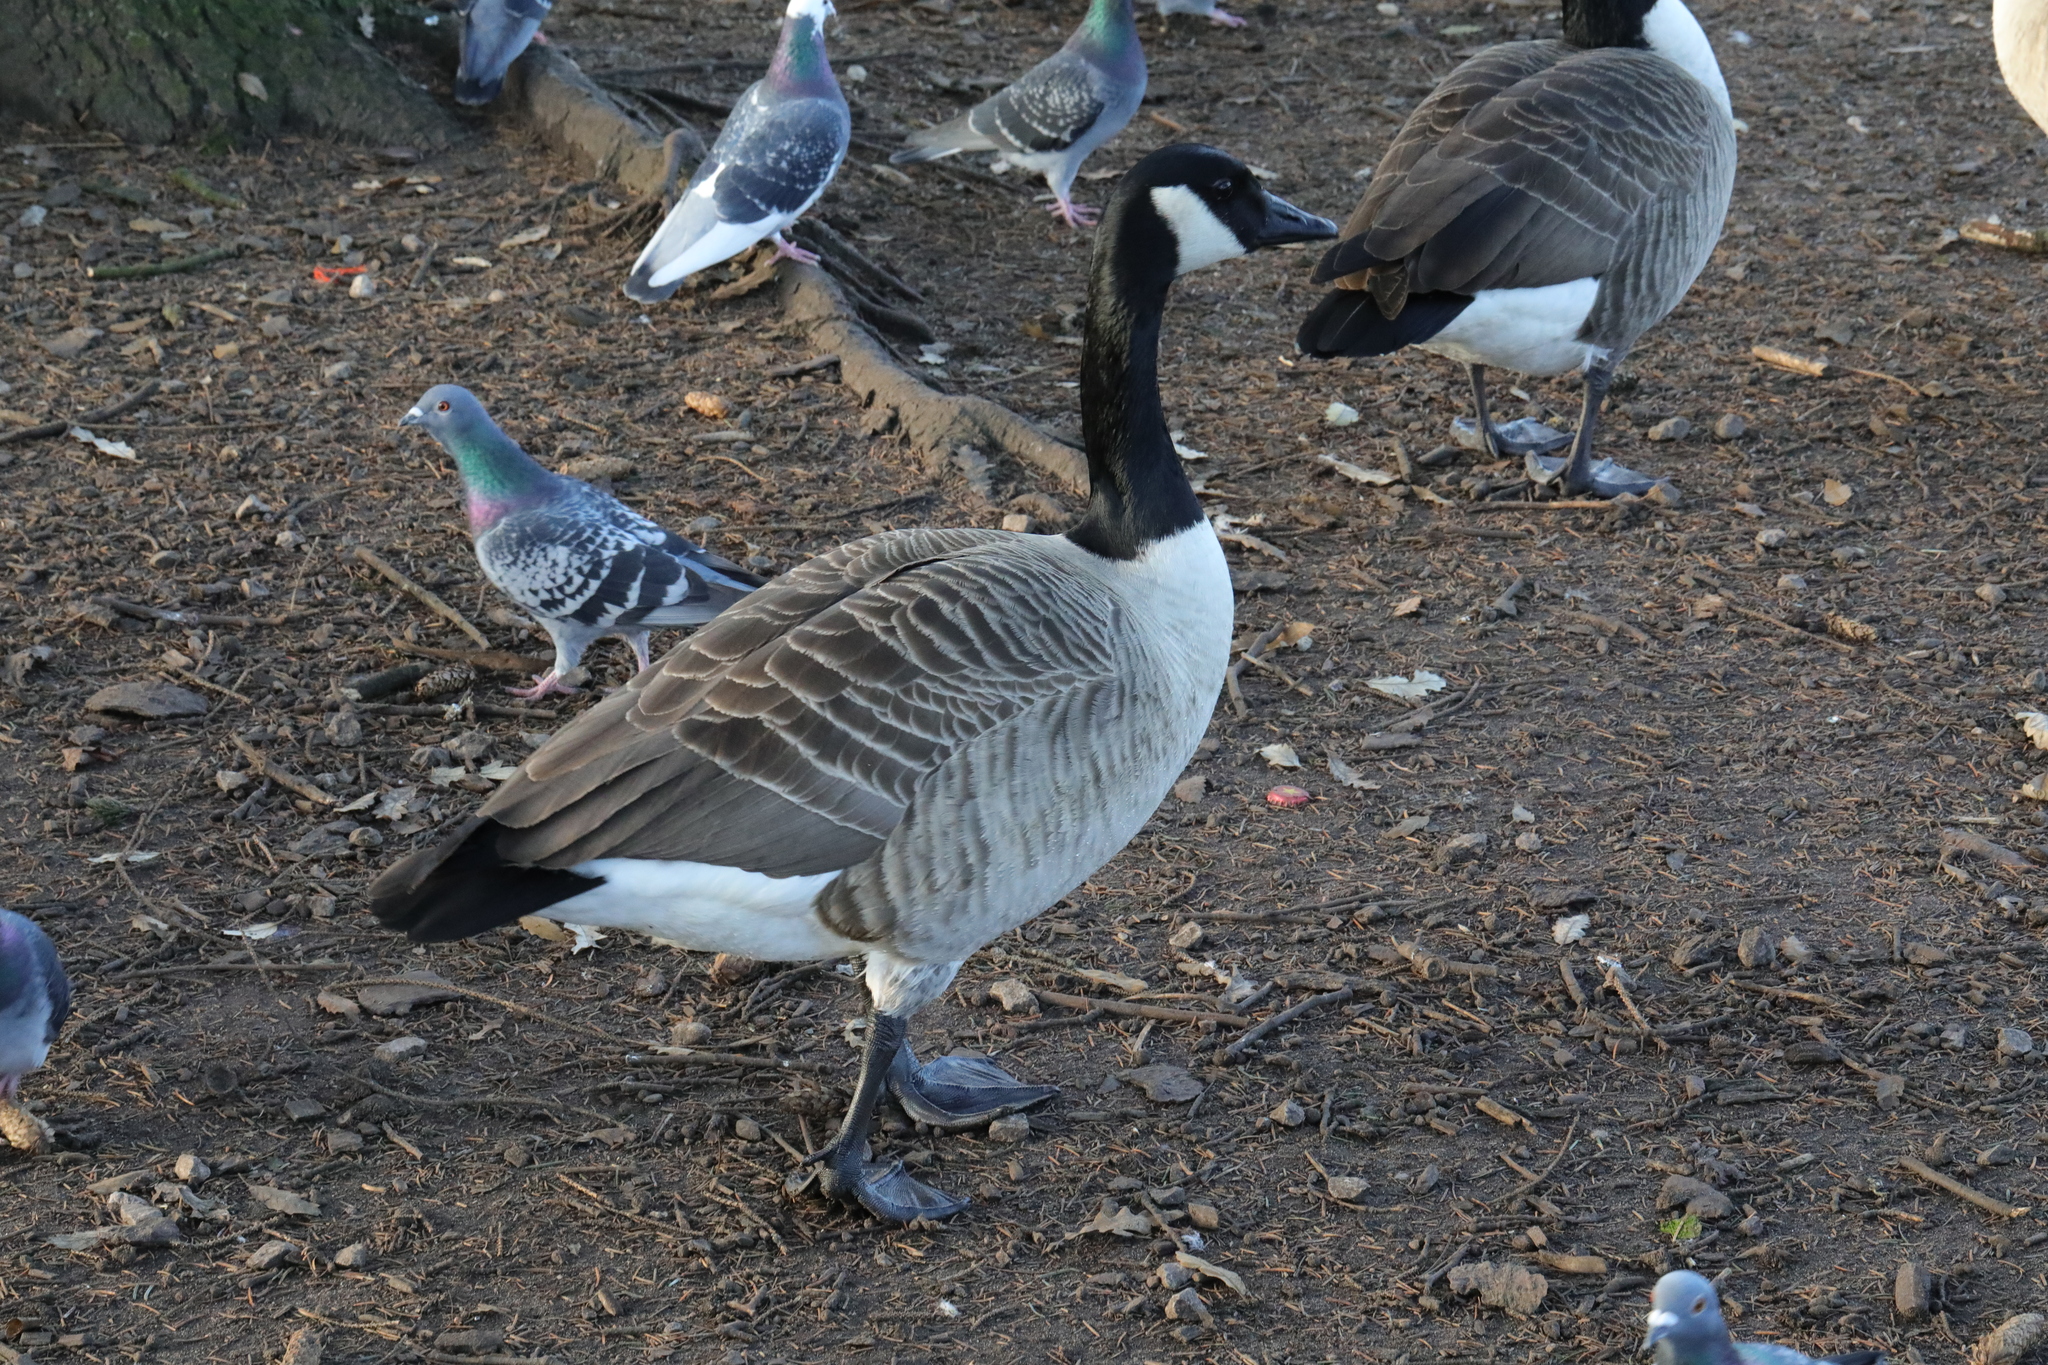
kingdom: Animalia
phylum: Chordata
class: Aves
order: Anseriformes
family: Anatidae
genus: Branta
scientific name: Branta canadensis
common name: Canada goose
